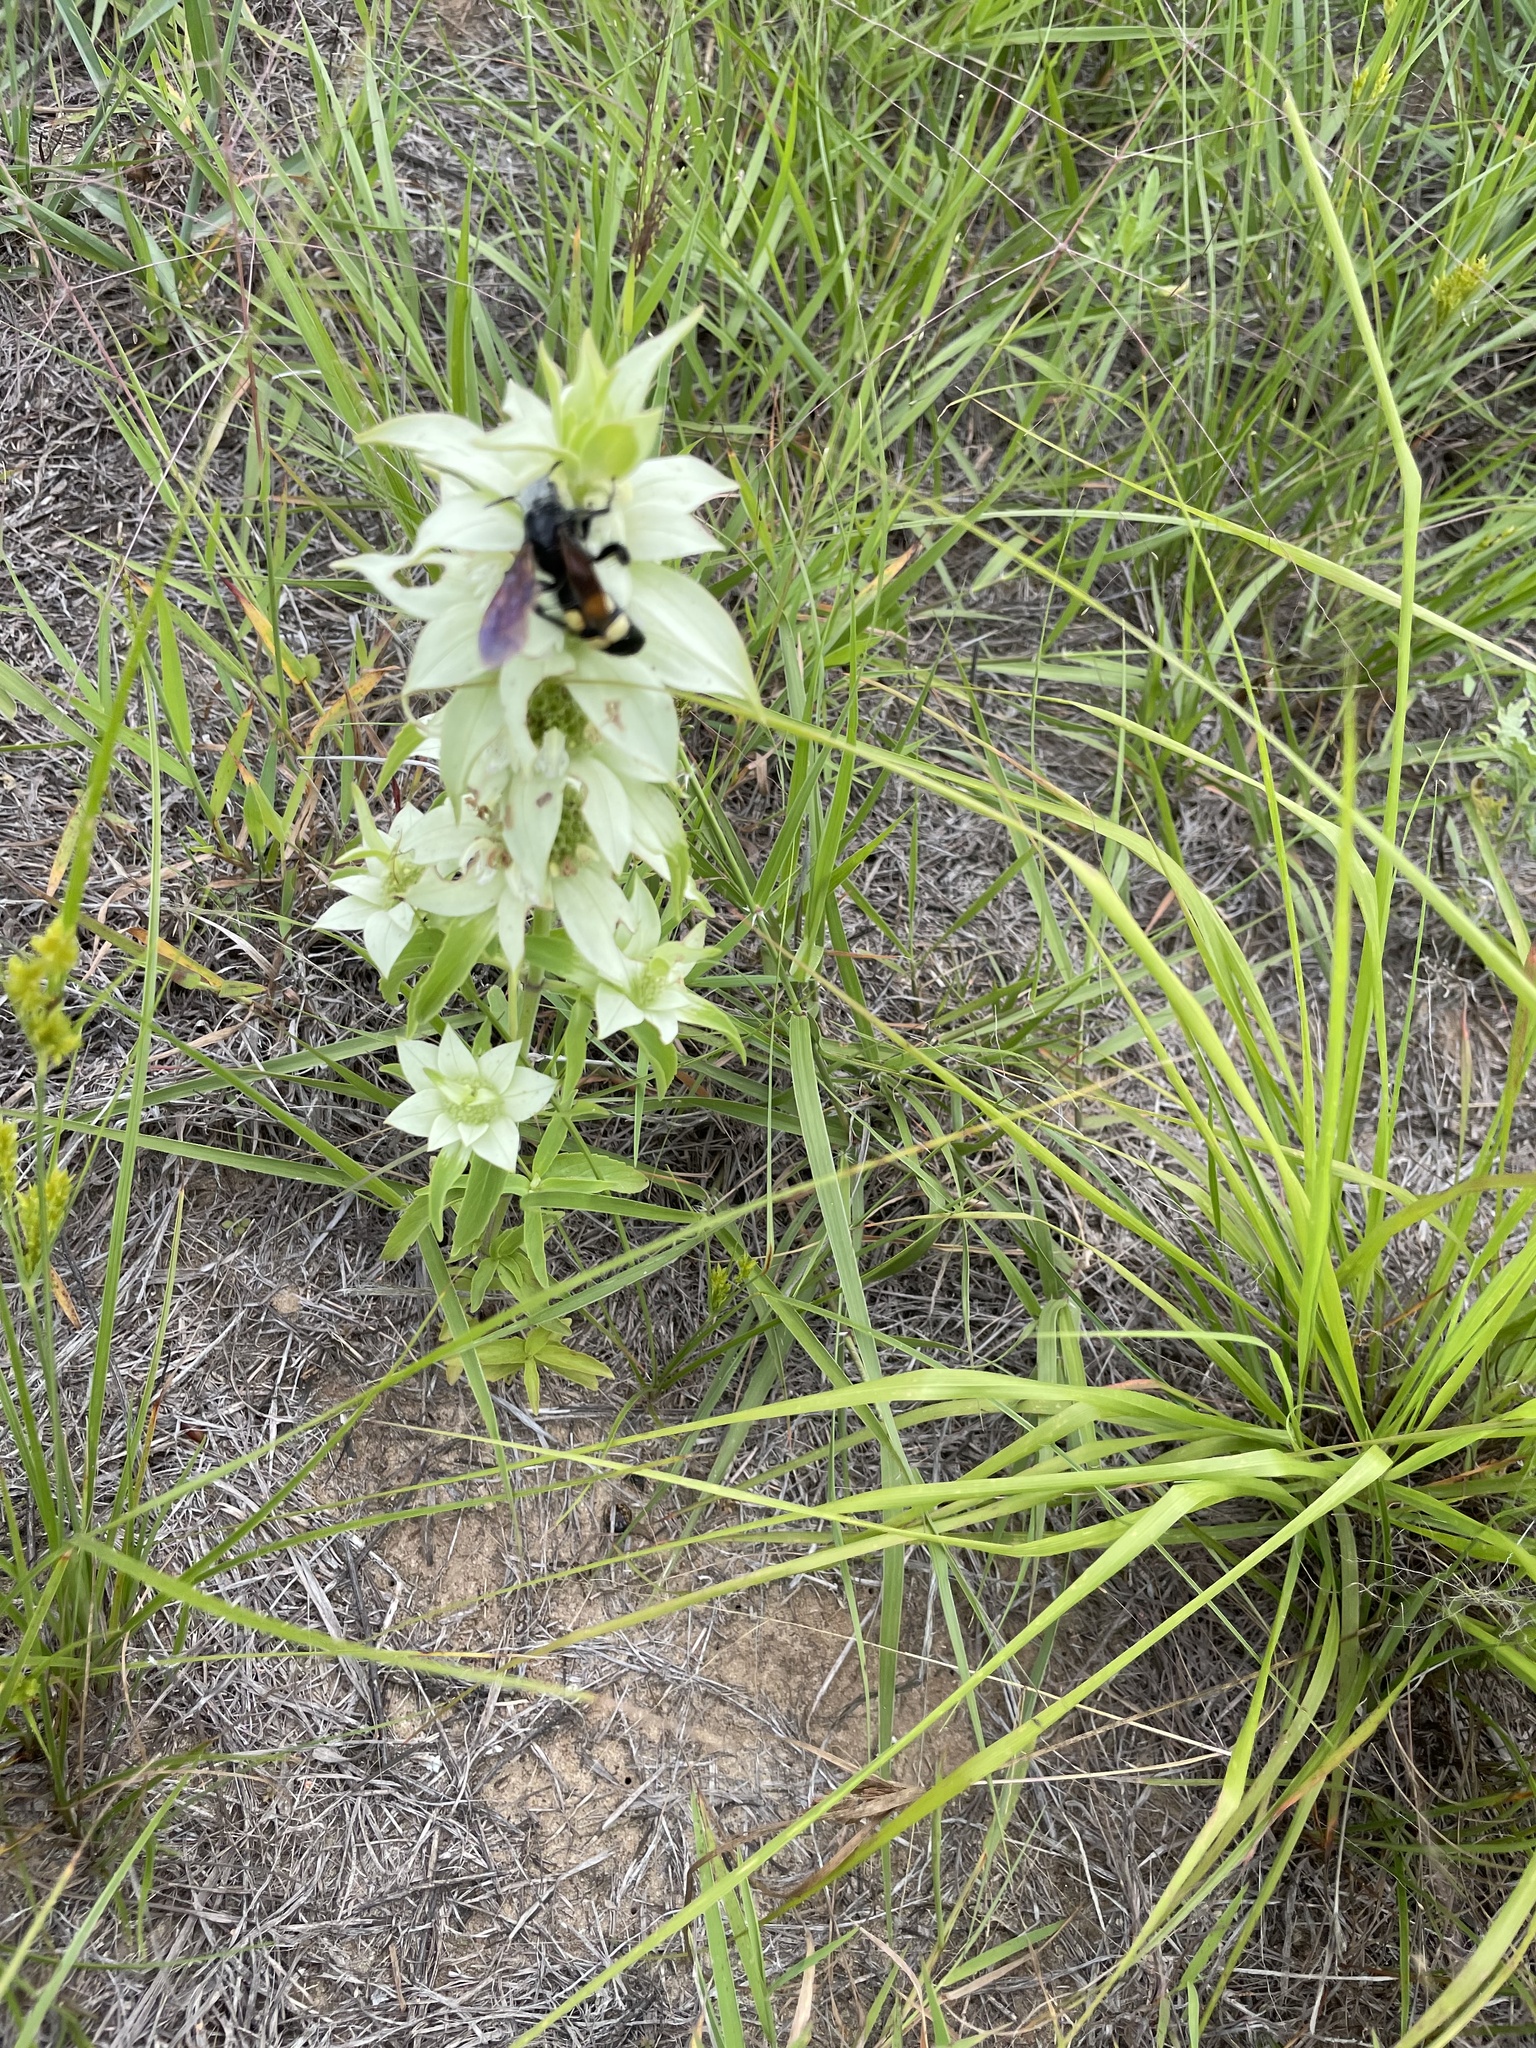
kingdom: Animalia
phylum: Arthropoda
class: Insecta
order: Hymenoptera
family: Scoliidae
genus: Pygodasis
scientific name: Pygodasis
